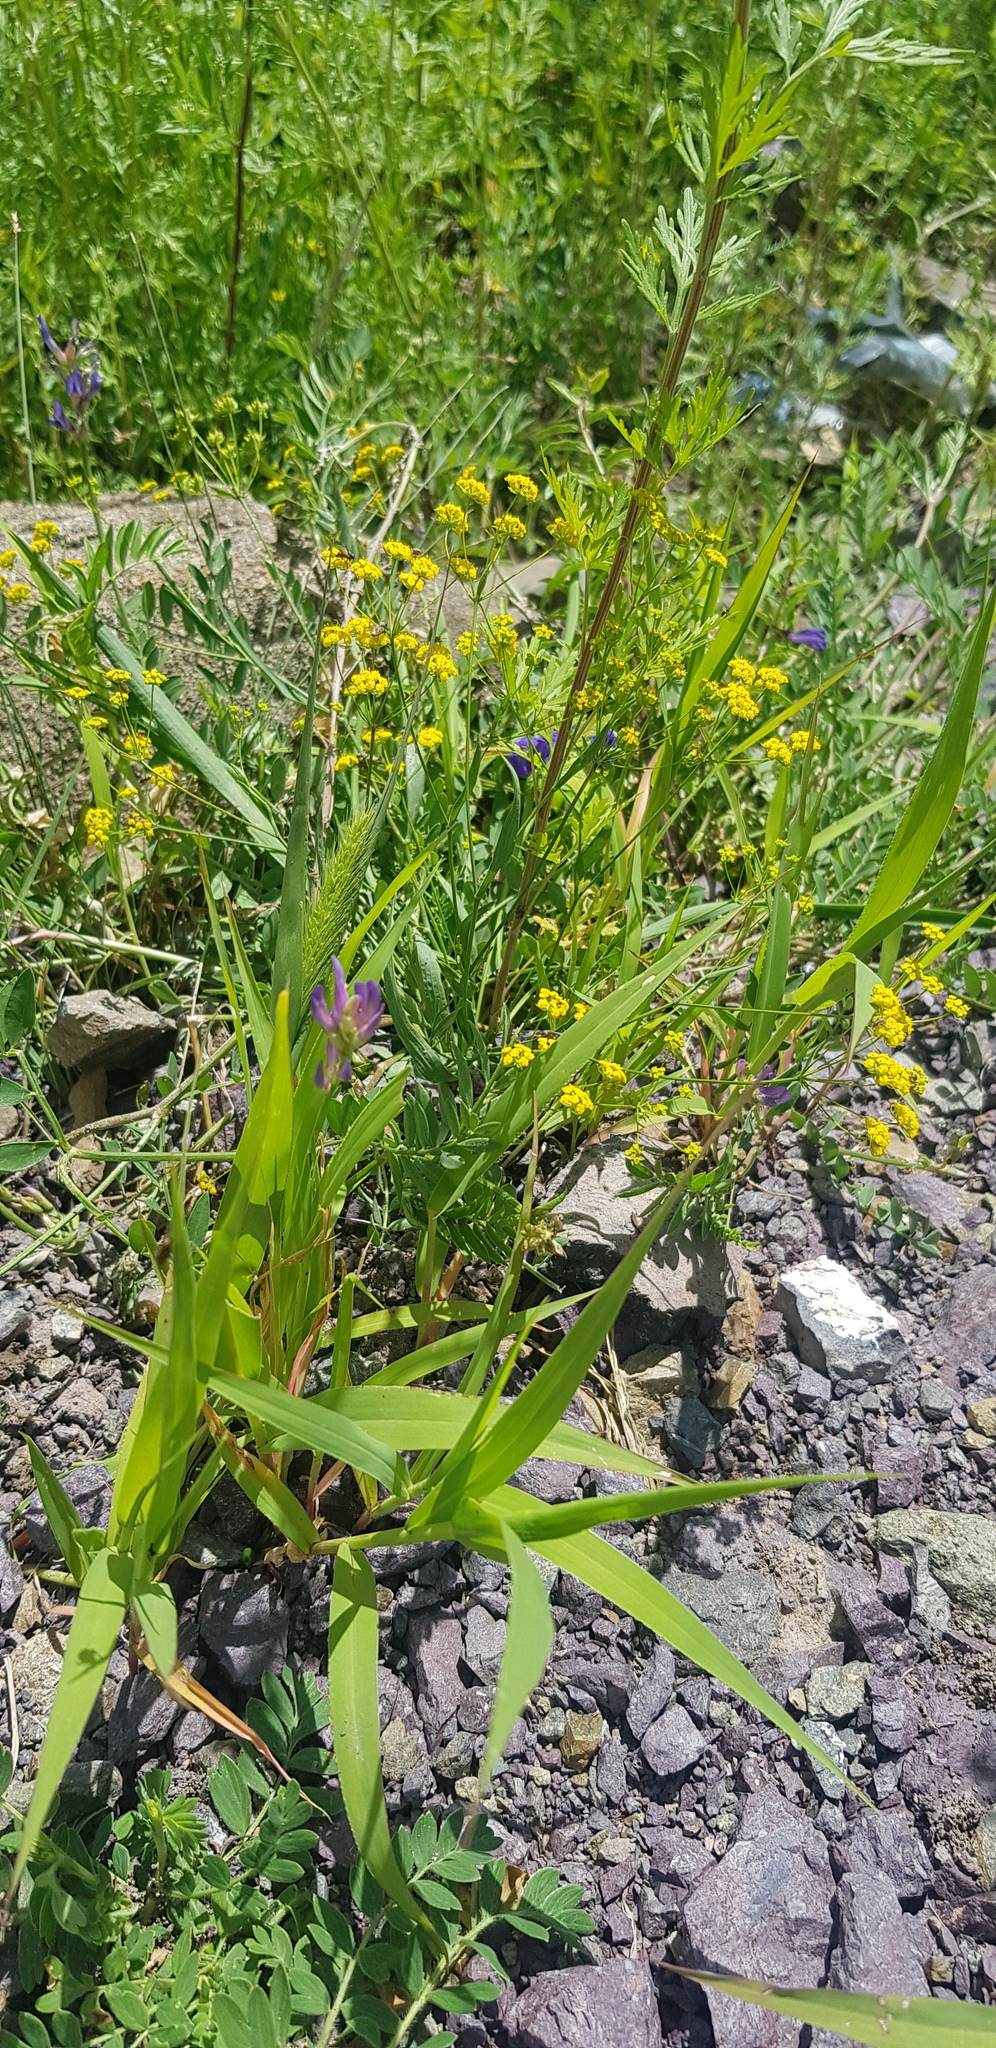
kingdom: Plantae
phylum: Tracheophyta
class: Liliopsida
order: Poales
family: Poaceae
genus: Setaria
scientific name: Setaria viridis
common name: Green bristlegrass
